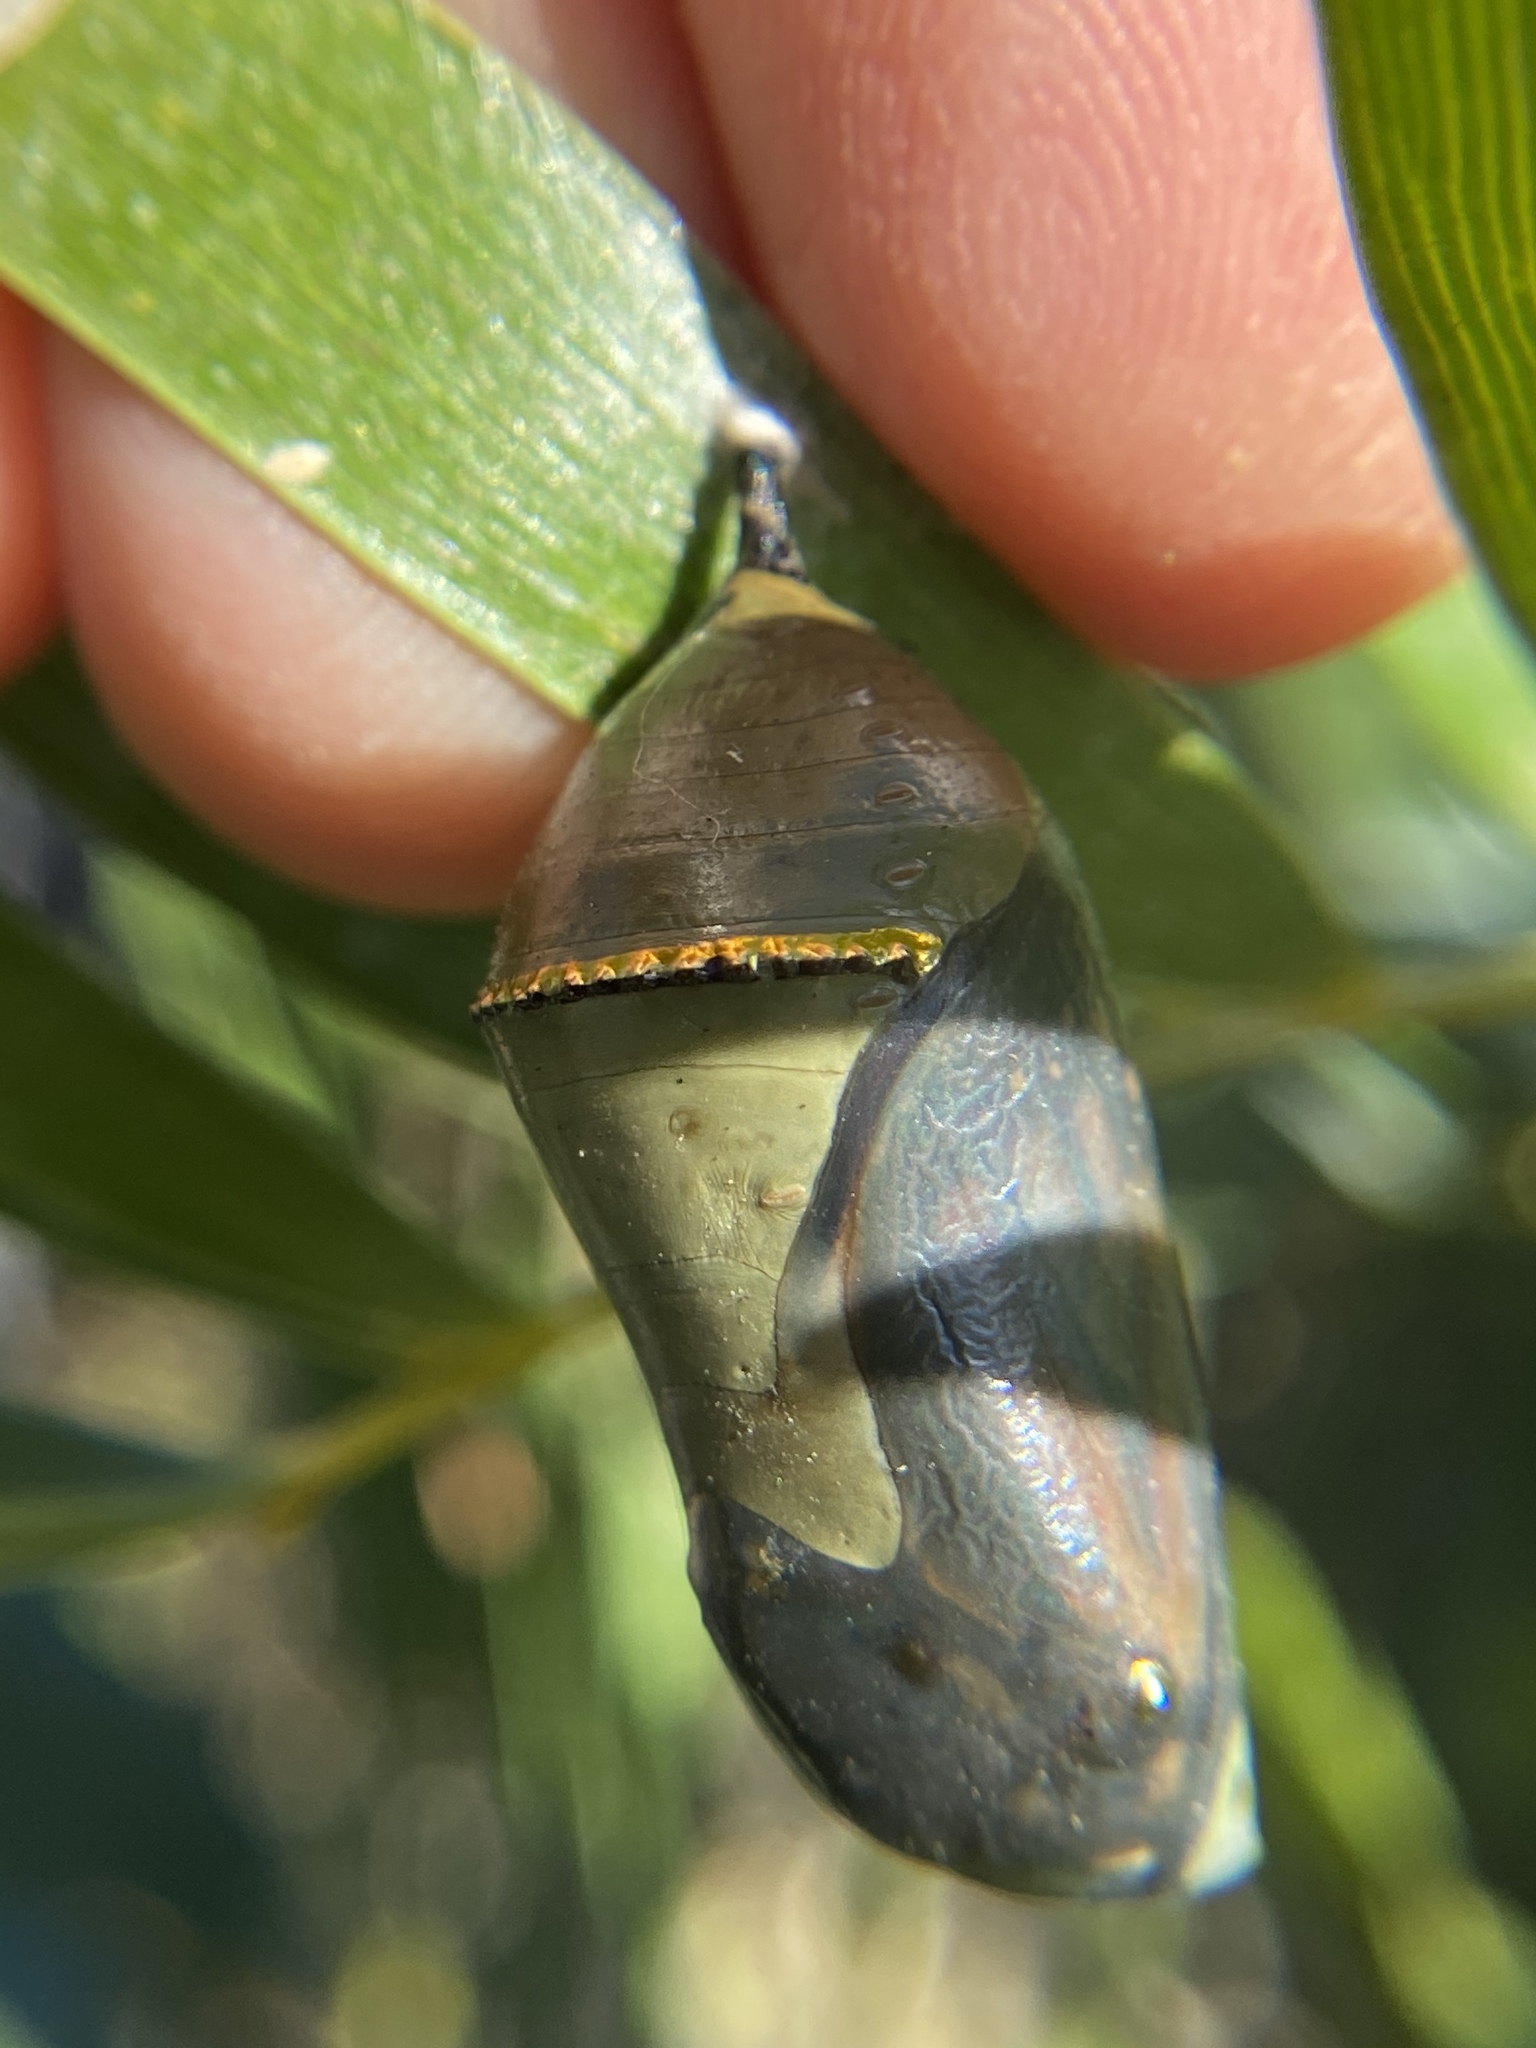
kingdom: Animalia
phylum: Arthropoda
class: Insecta
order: Lepidoptera
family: Nymphalidae
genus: Danaus
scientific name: Danaus plexippus
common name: Monarch
